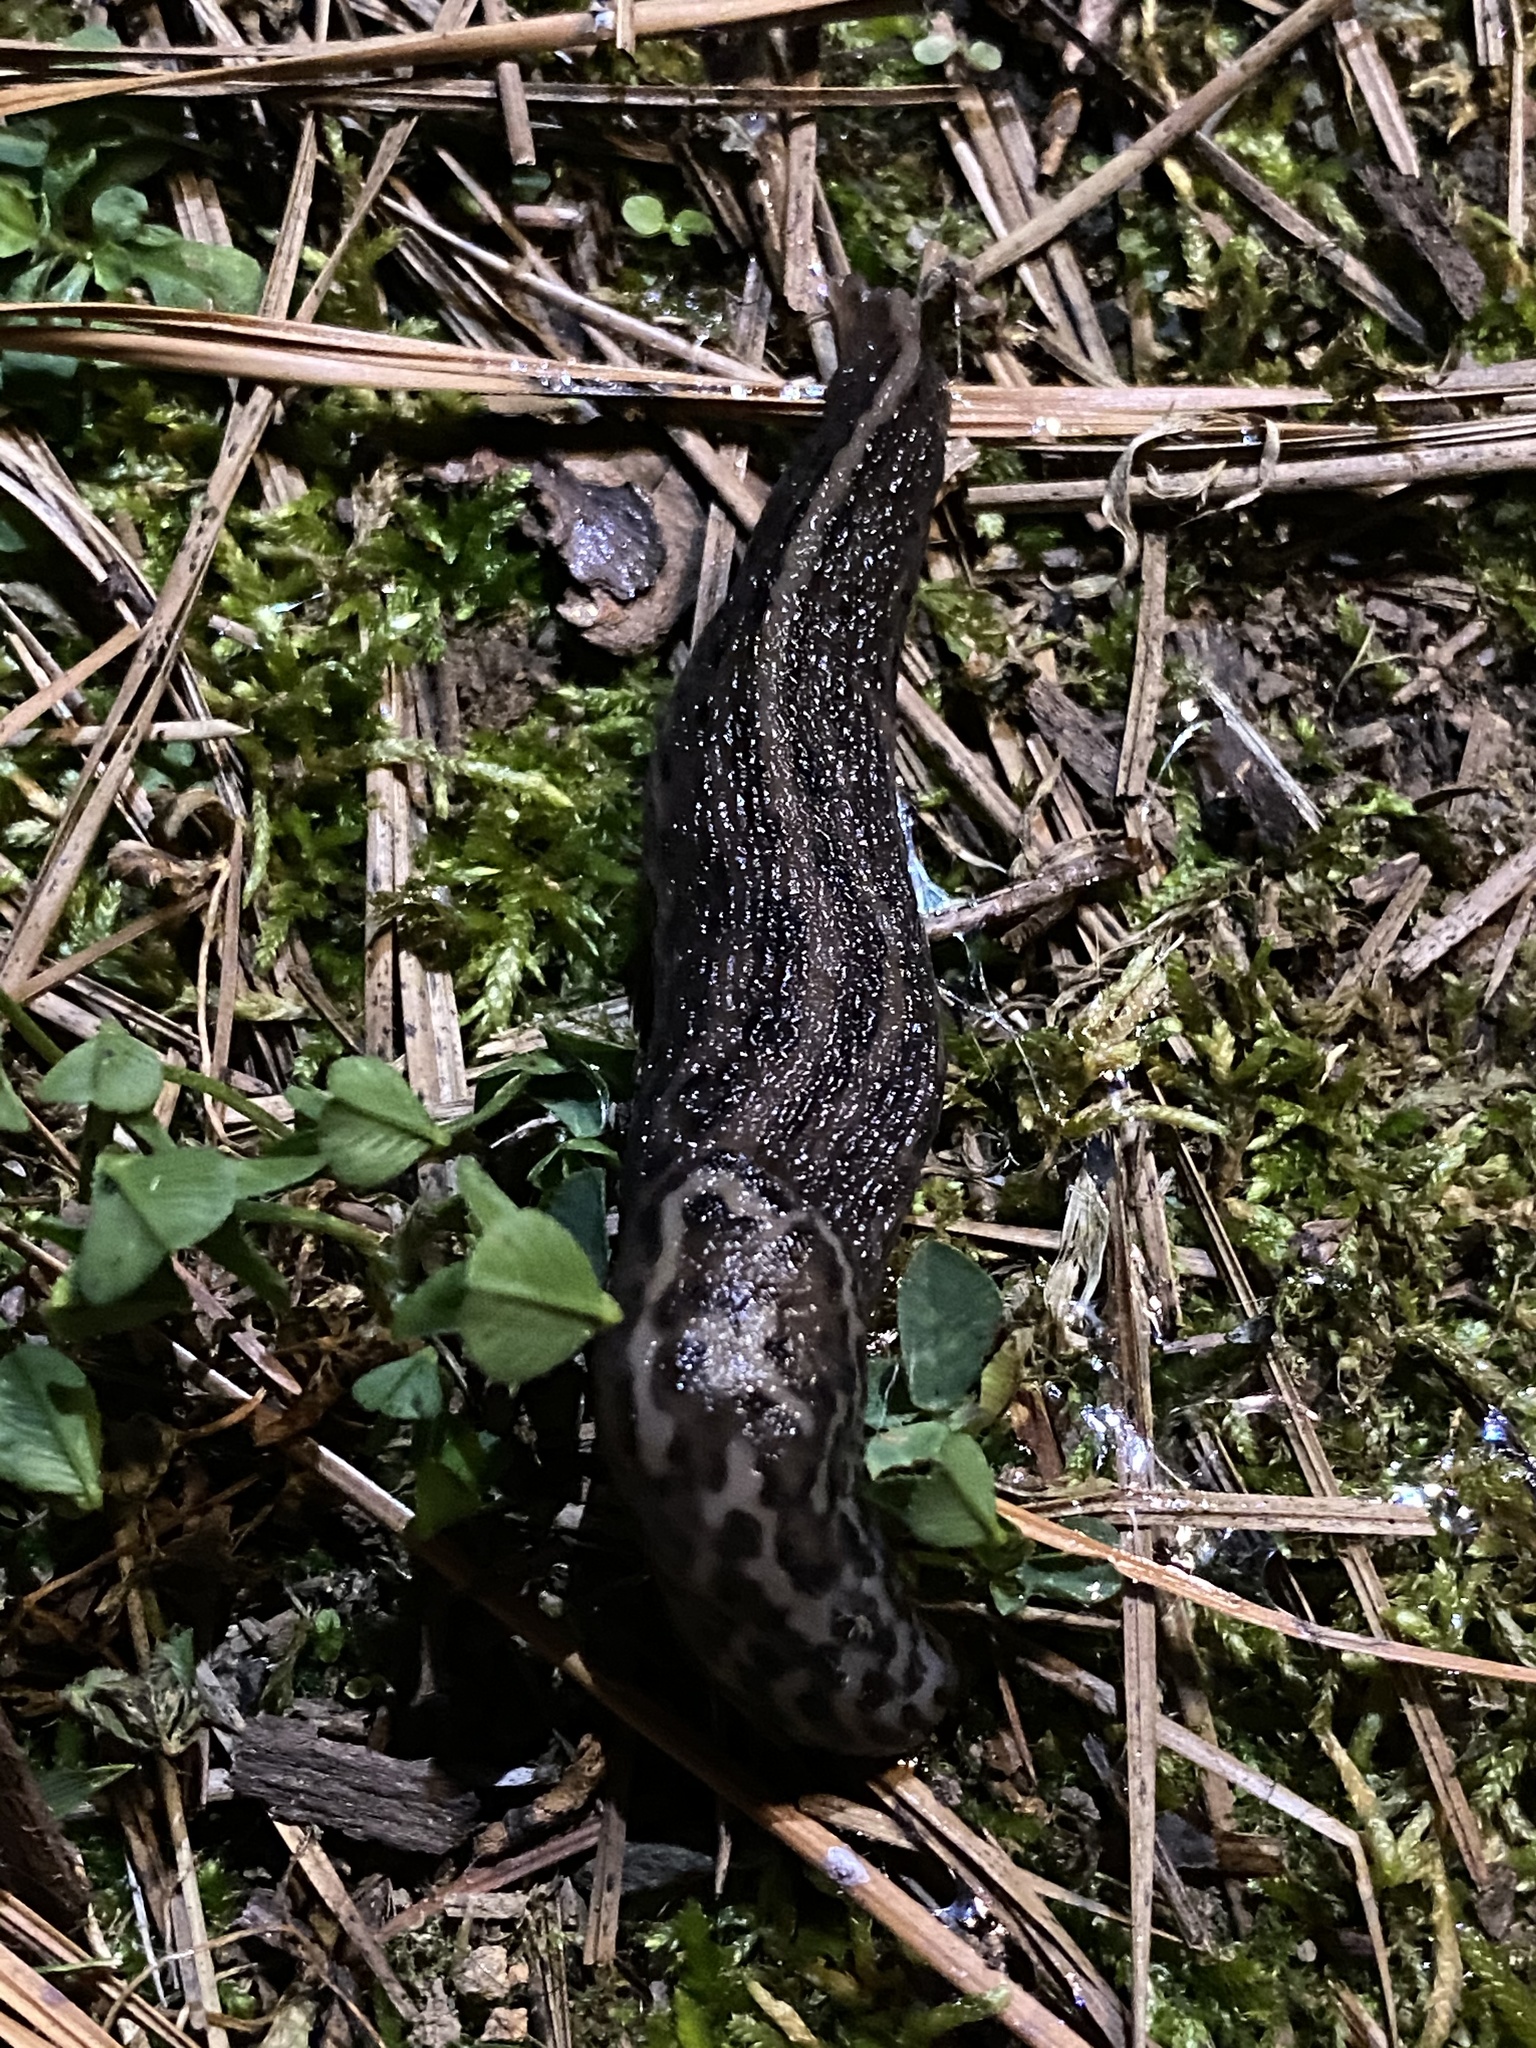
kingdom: Animalia
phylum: Mollusca
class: Gastropoda
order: Stylommatophora
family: Limacidae
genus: Limax
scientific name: Limax maximus
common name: Great grey slug
